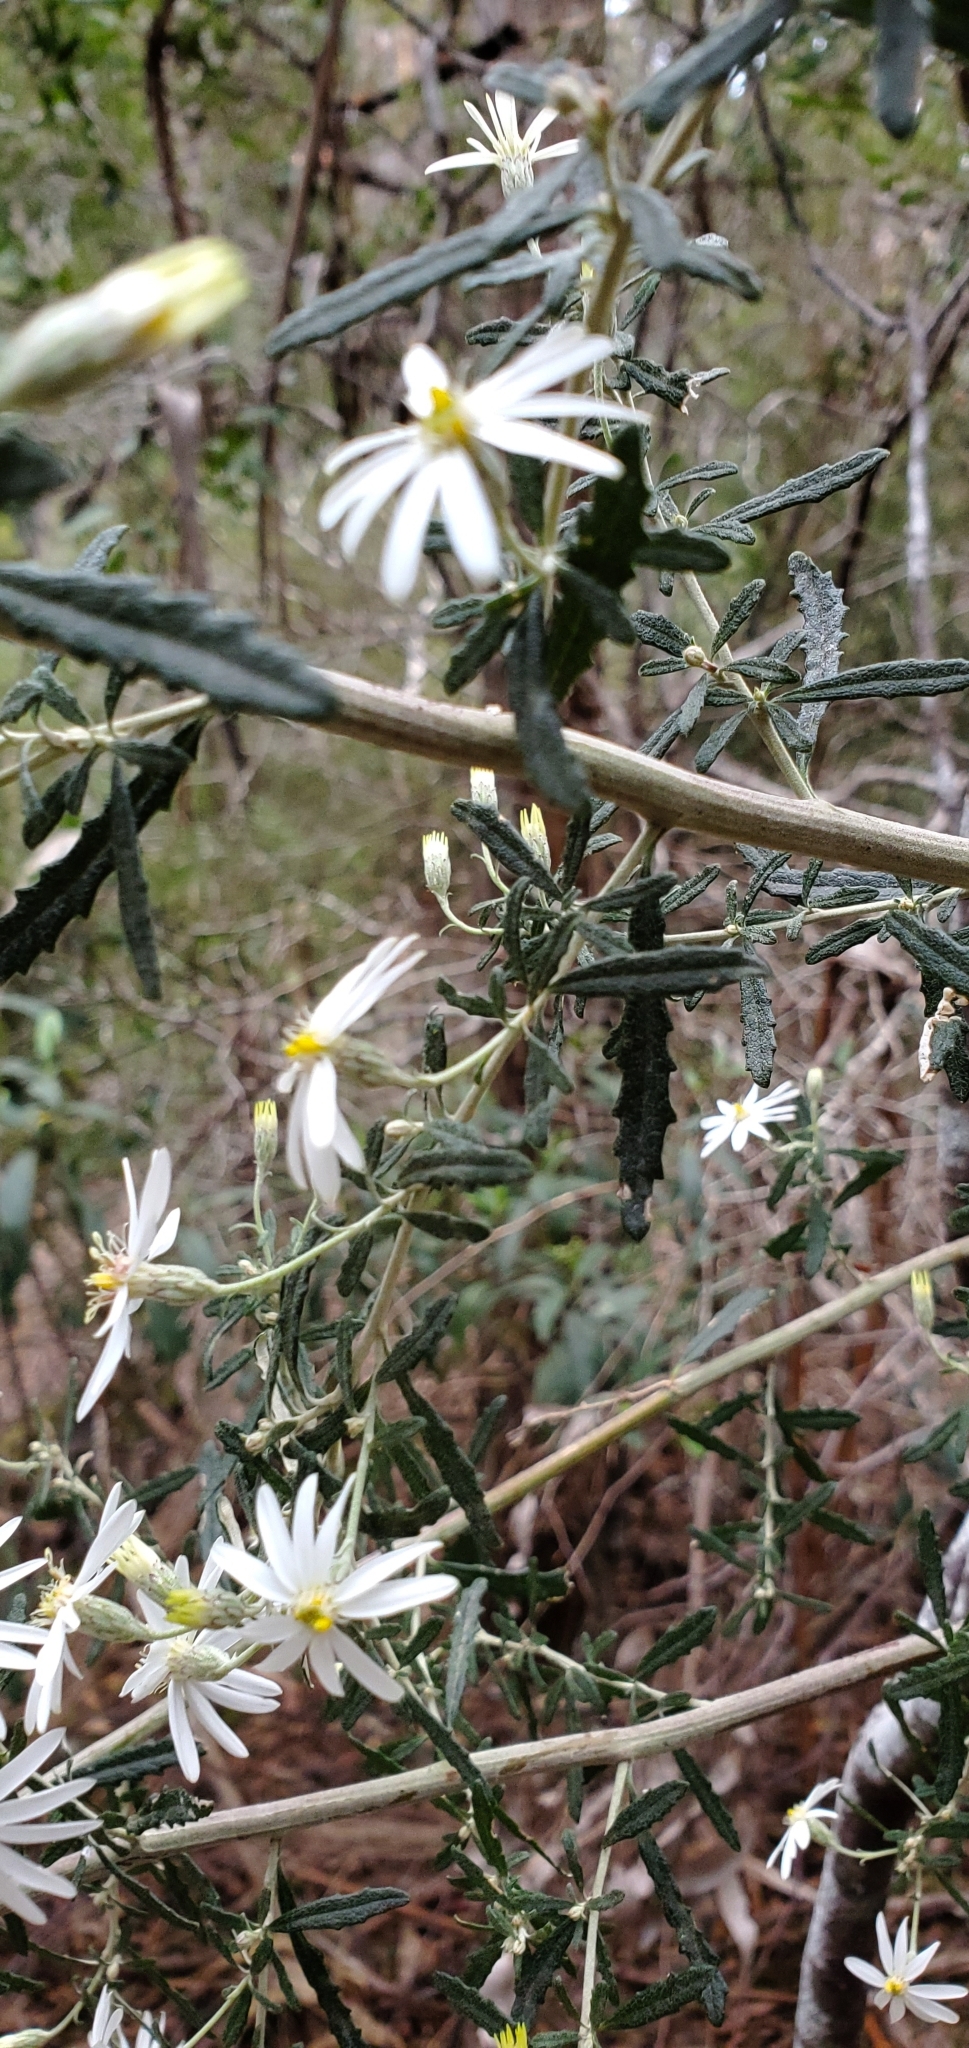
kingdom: Plantae
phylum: Tracheophyta
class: Magnoliopsida
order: Asterales
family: Asteraceae
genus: Olearia
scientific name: Olearia phlogopappa
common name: Alpine daisybush
